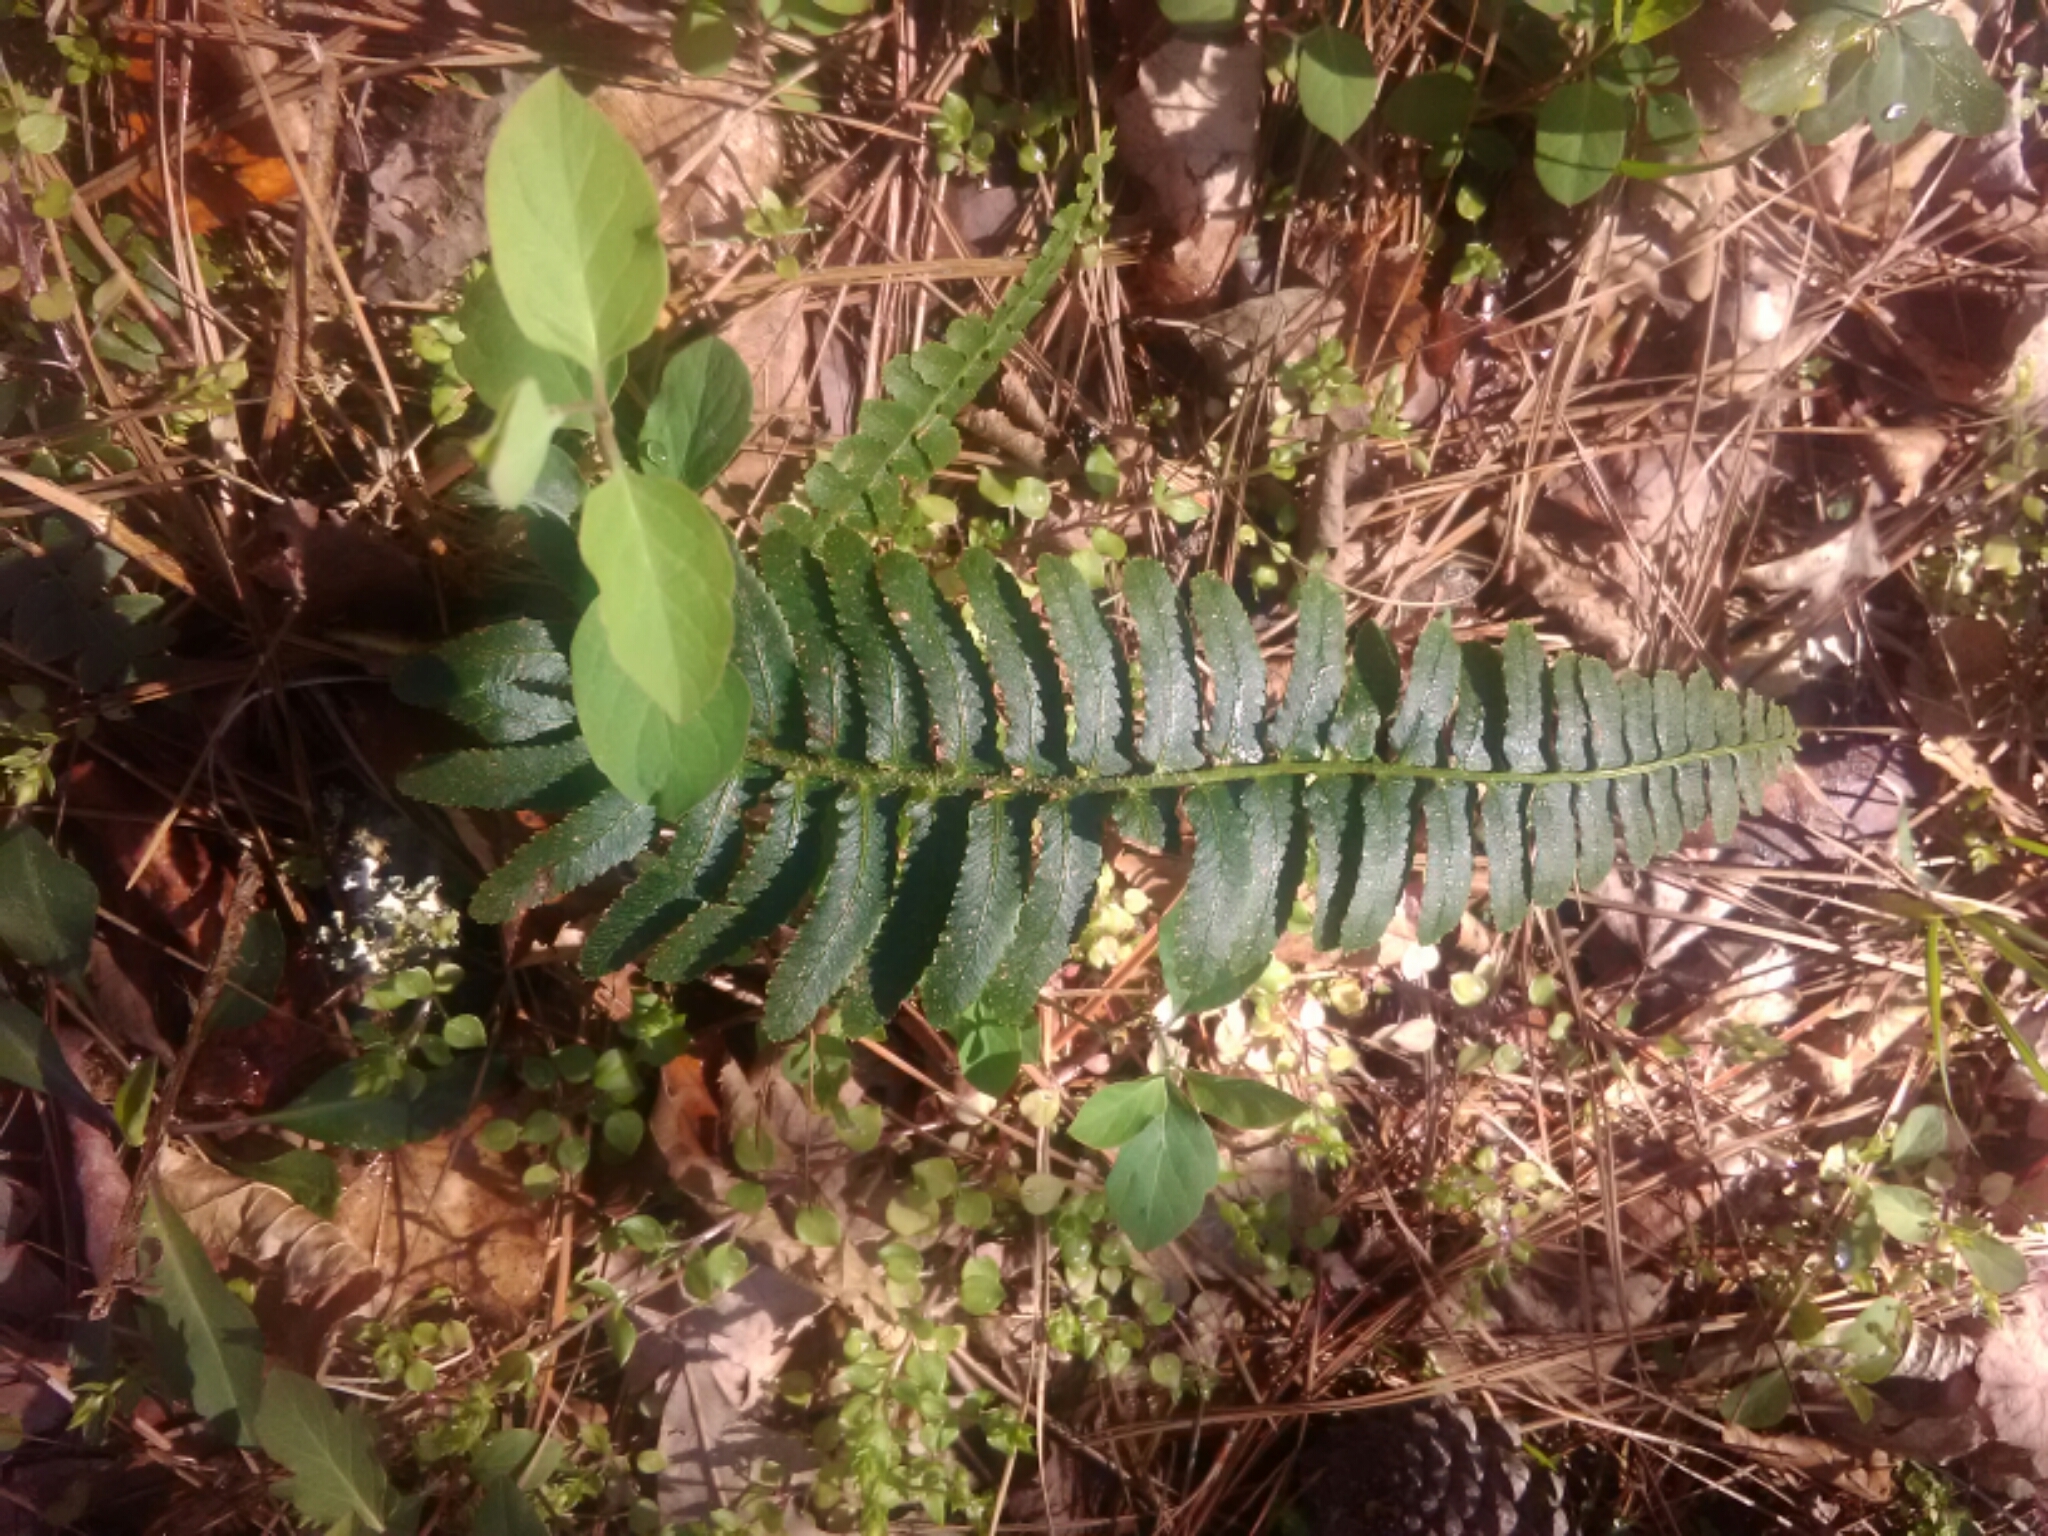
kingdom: Plantae
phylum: Tracheophyta
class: Polypodiopsida
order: Polypodiales
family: Dryopteridaceae
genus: Polystichum
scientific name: Polystichum acrostichoides
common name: Christmas fern
